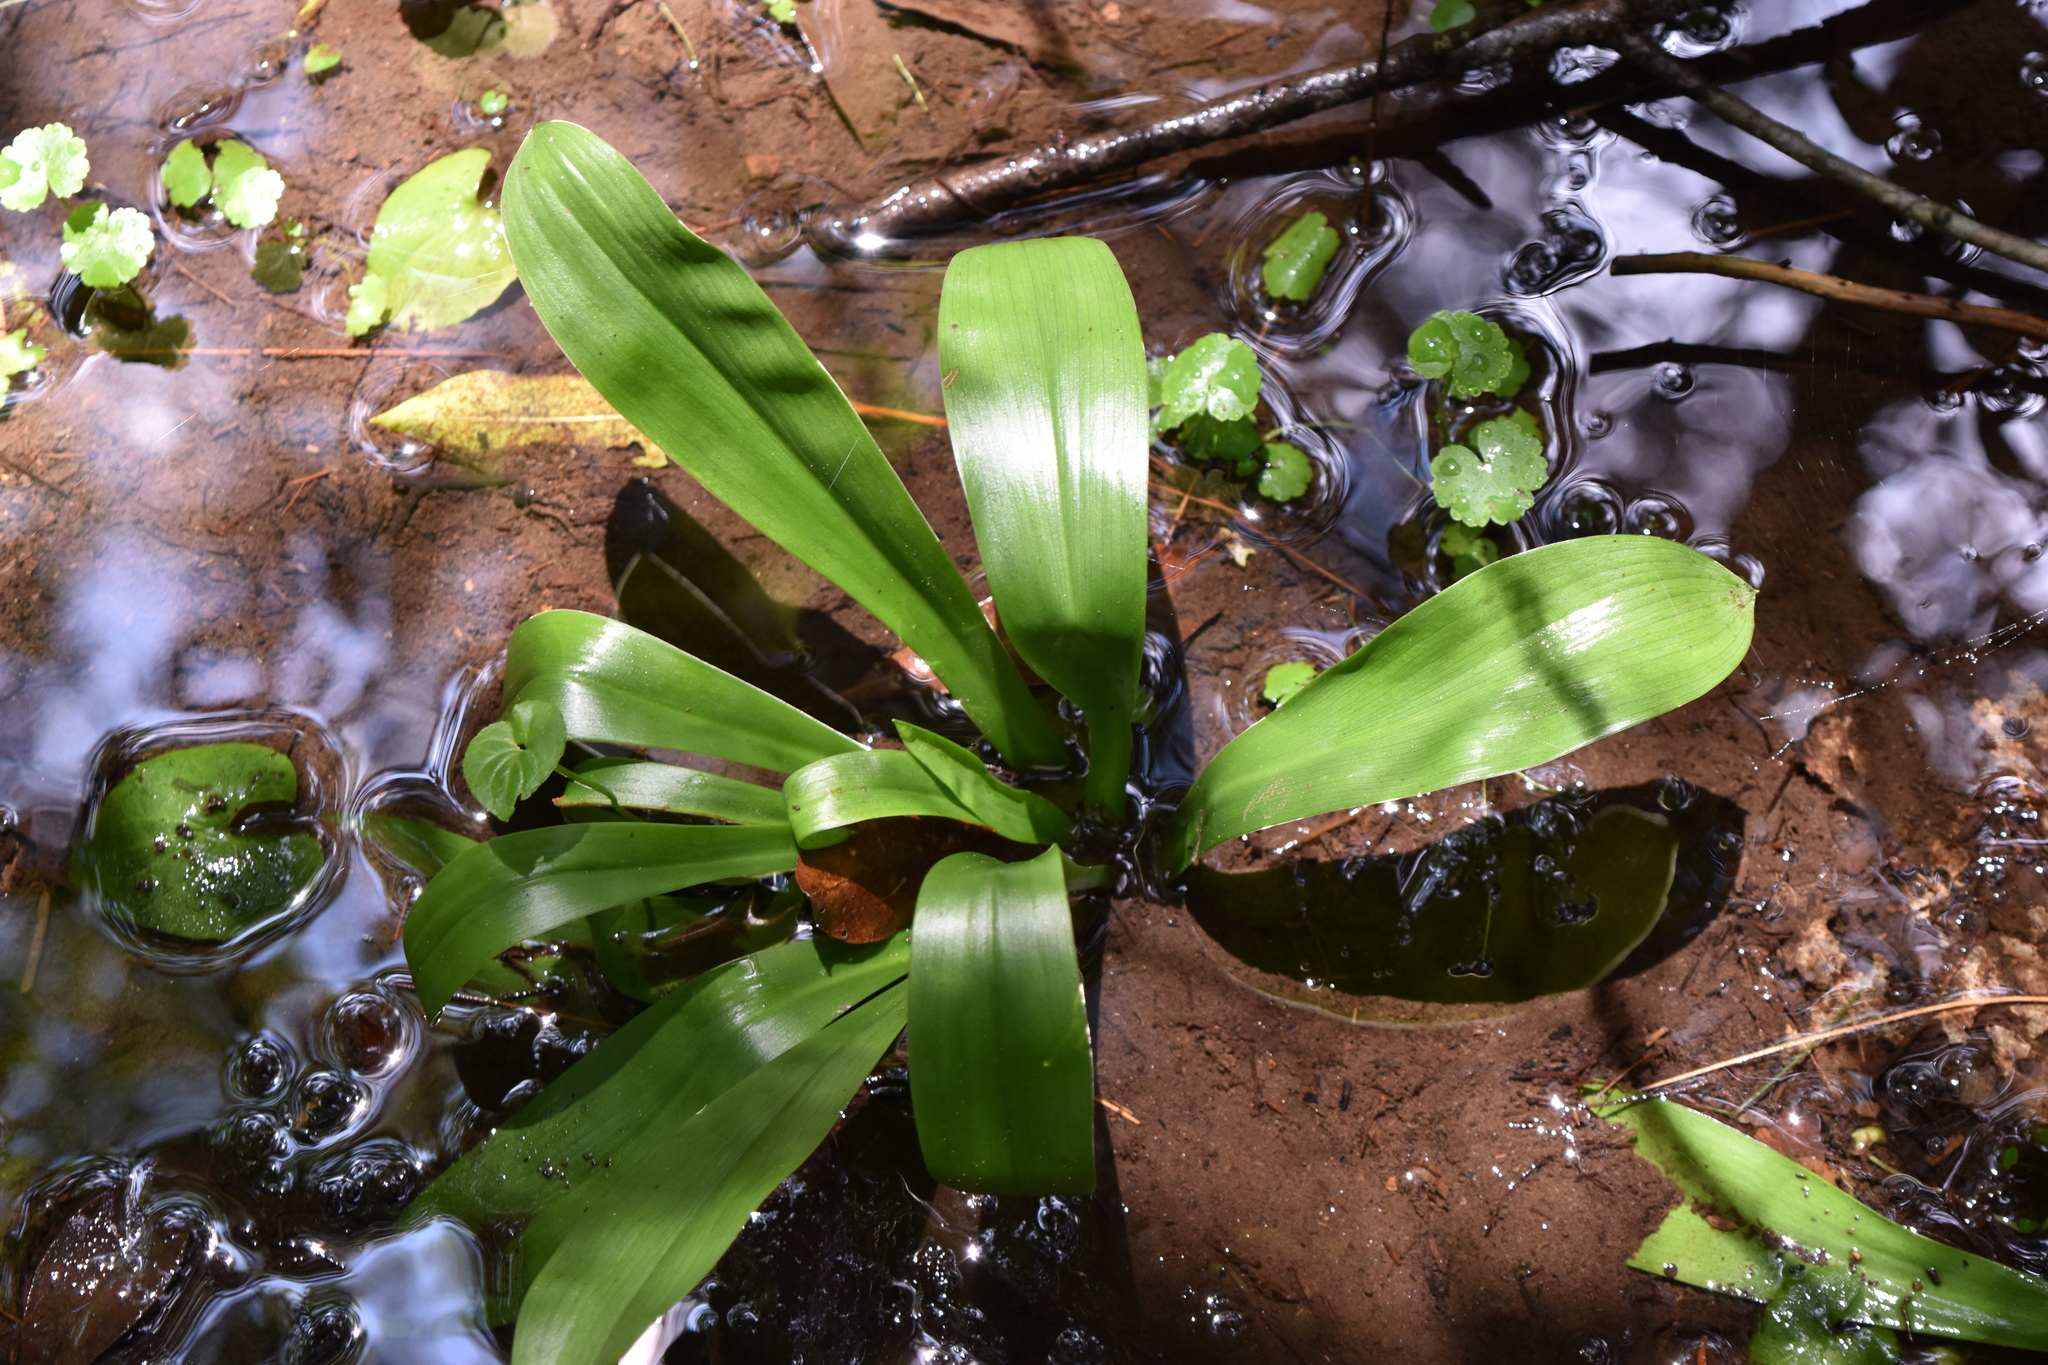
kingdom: Plantae
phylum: Tracheophyta
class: Liliopsida
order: Liliales
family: Melanthiaceae
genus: Helonias
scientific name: Helonias bullata
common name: Swamp-pink
